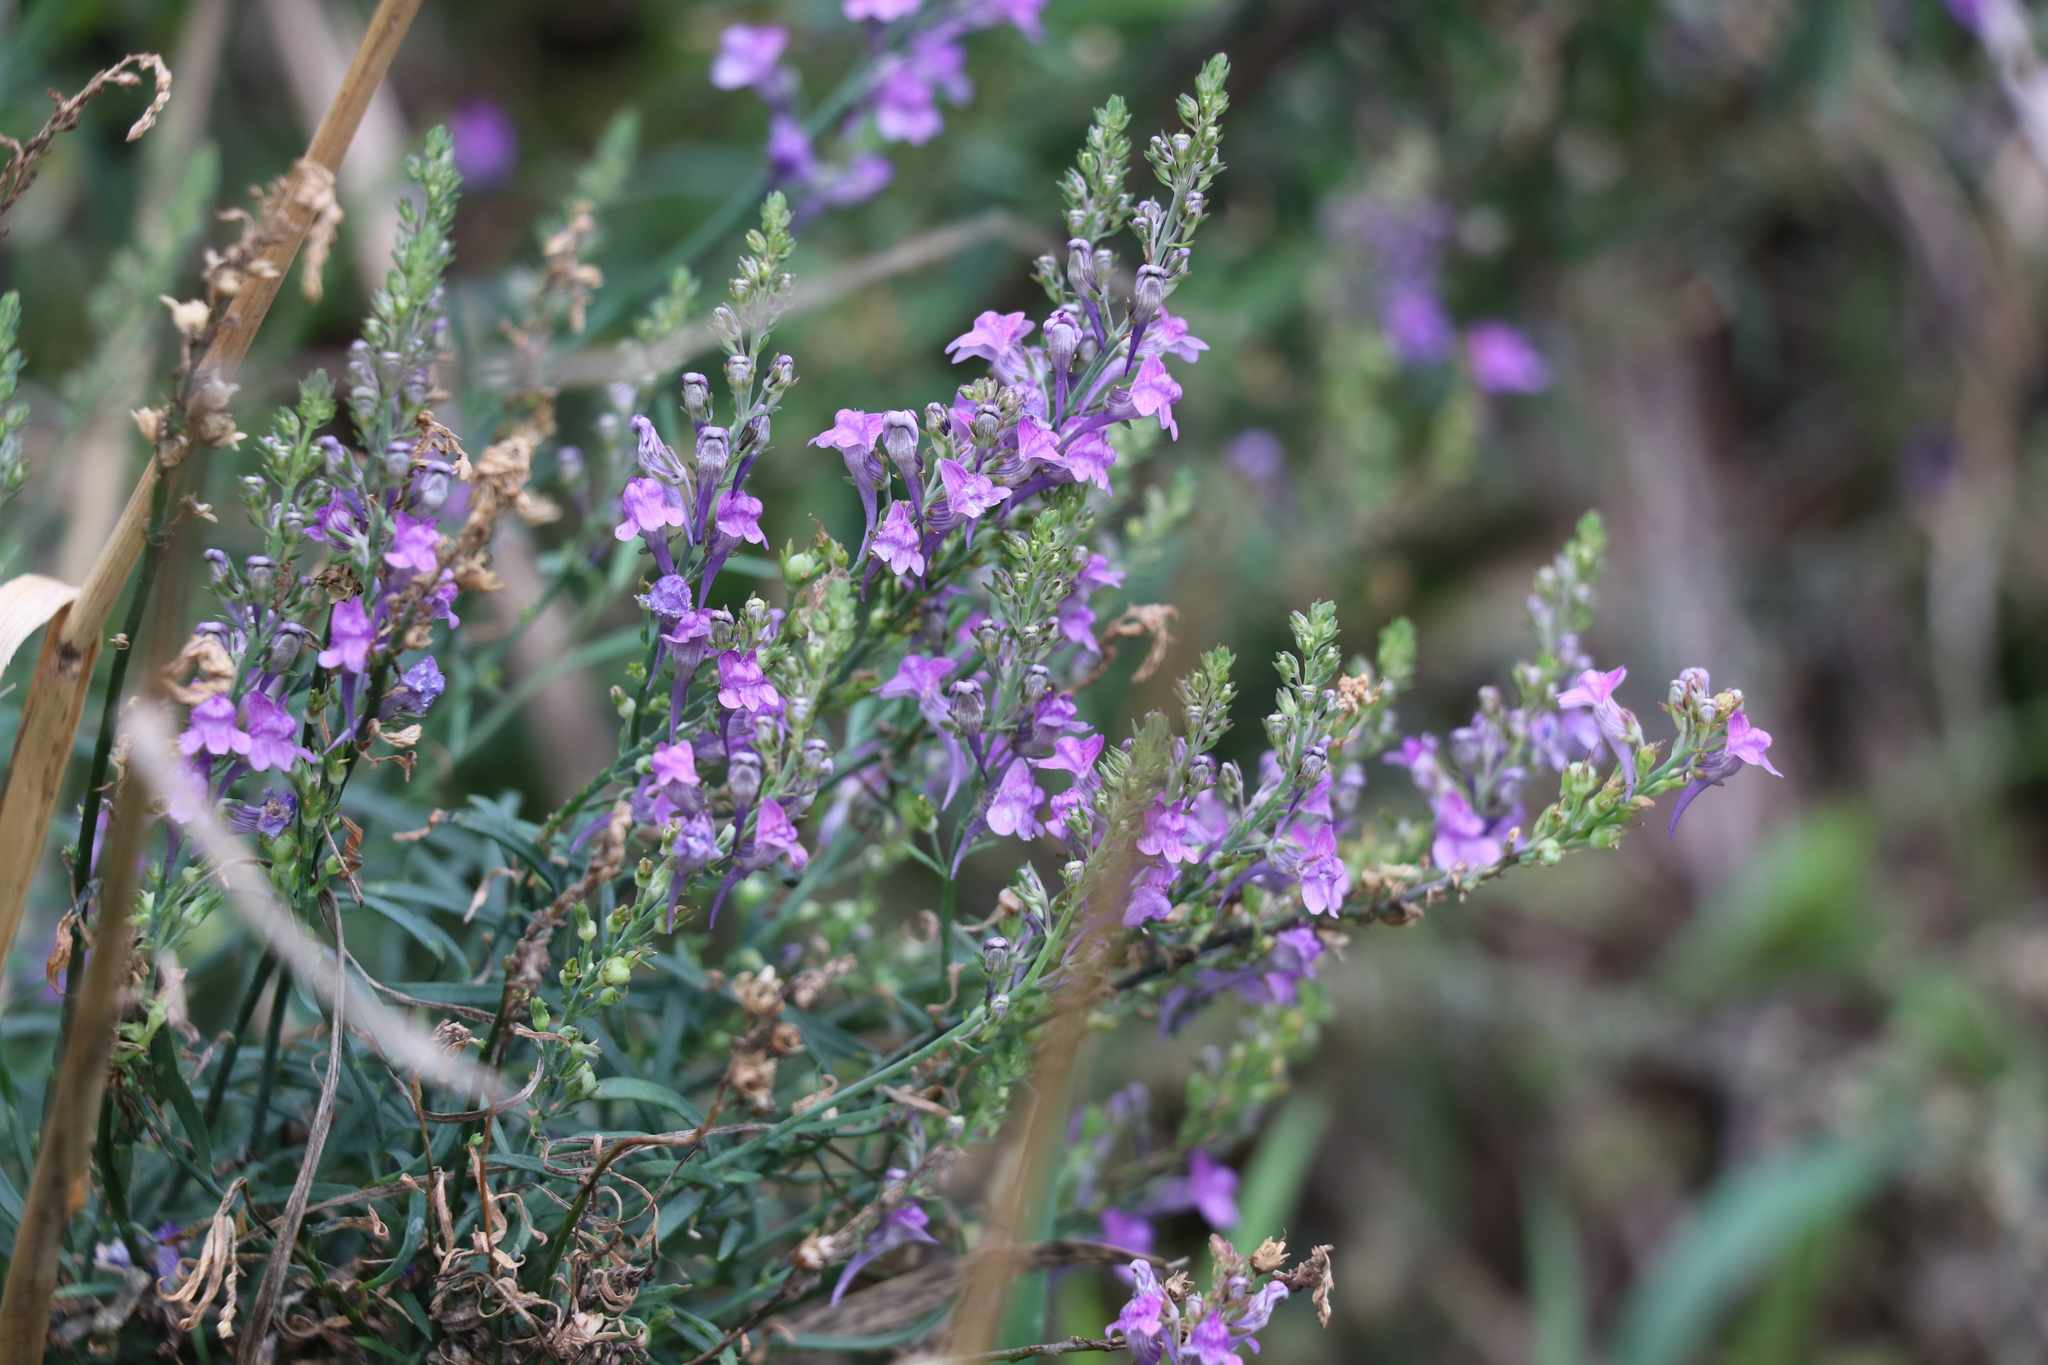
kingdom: Plantae
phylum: Tracheophyta
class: Magnoliopsida
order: Lamiales
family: Plantaginaceae
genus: Linaria
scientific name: Linaria purpurea
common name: Purple toadflax
